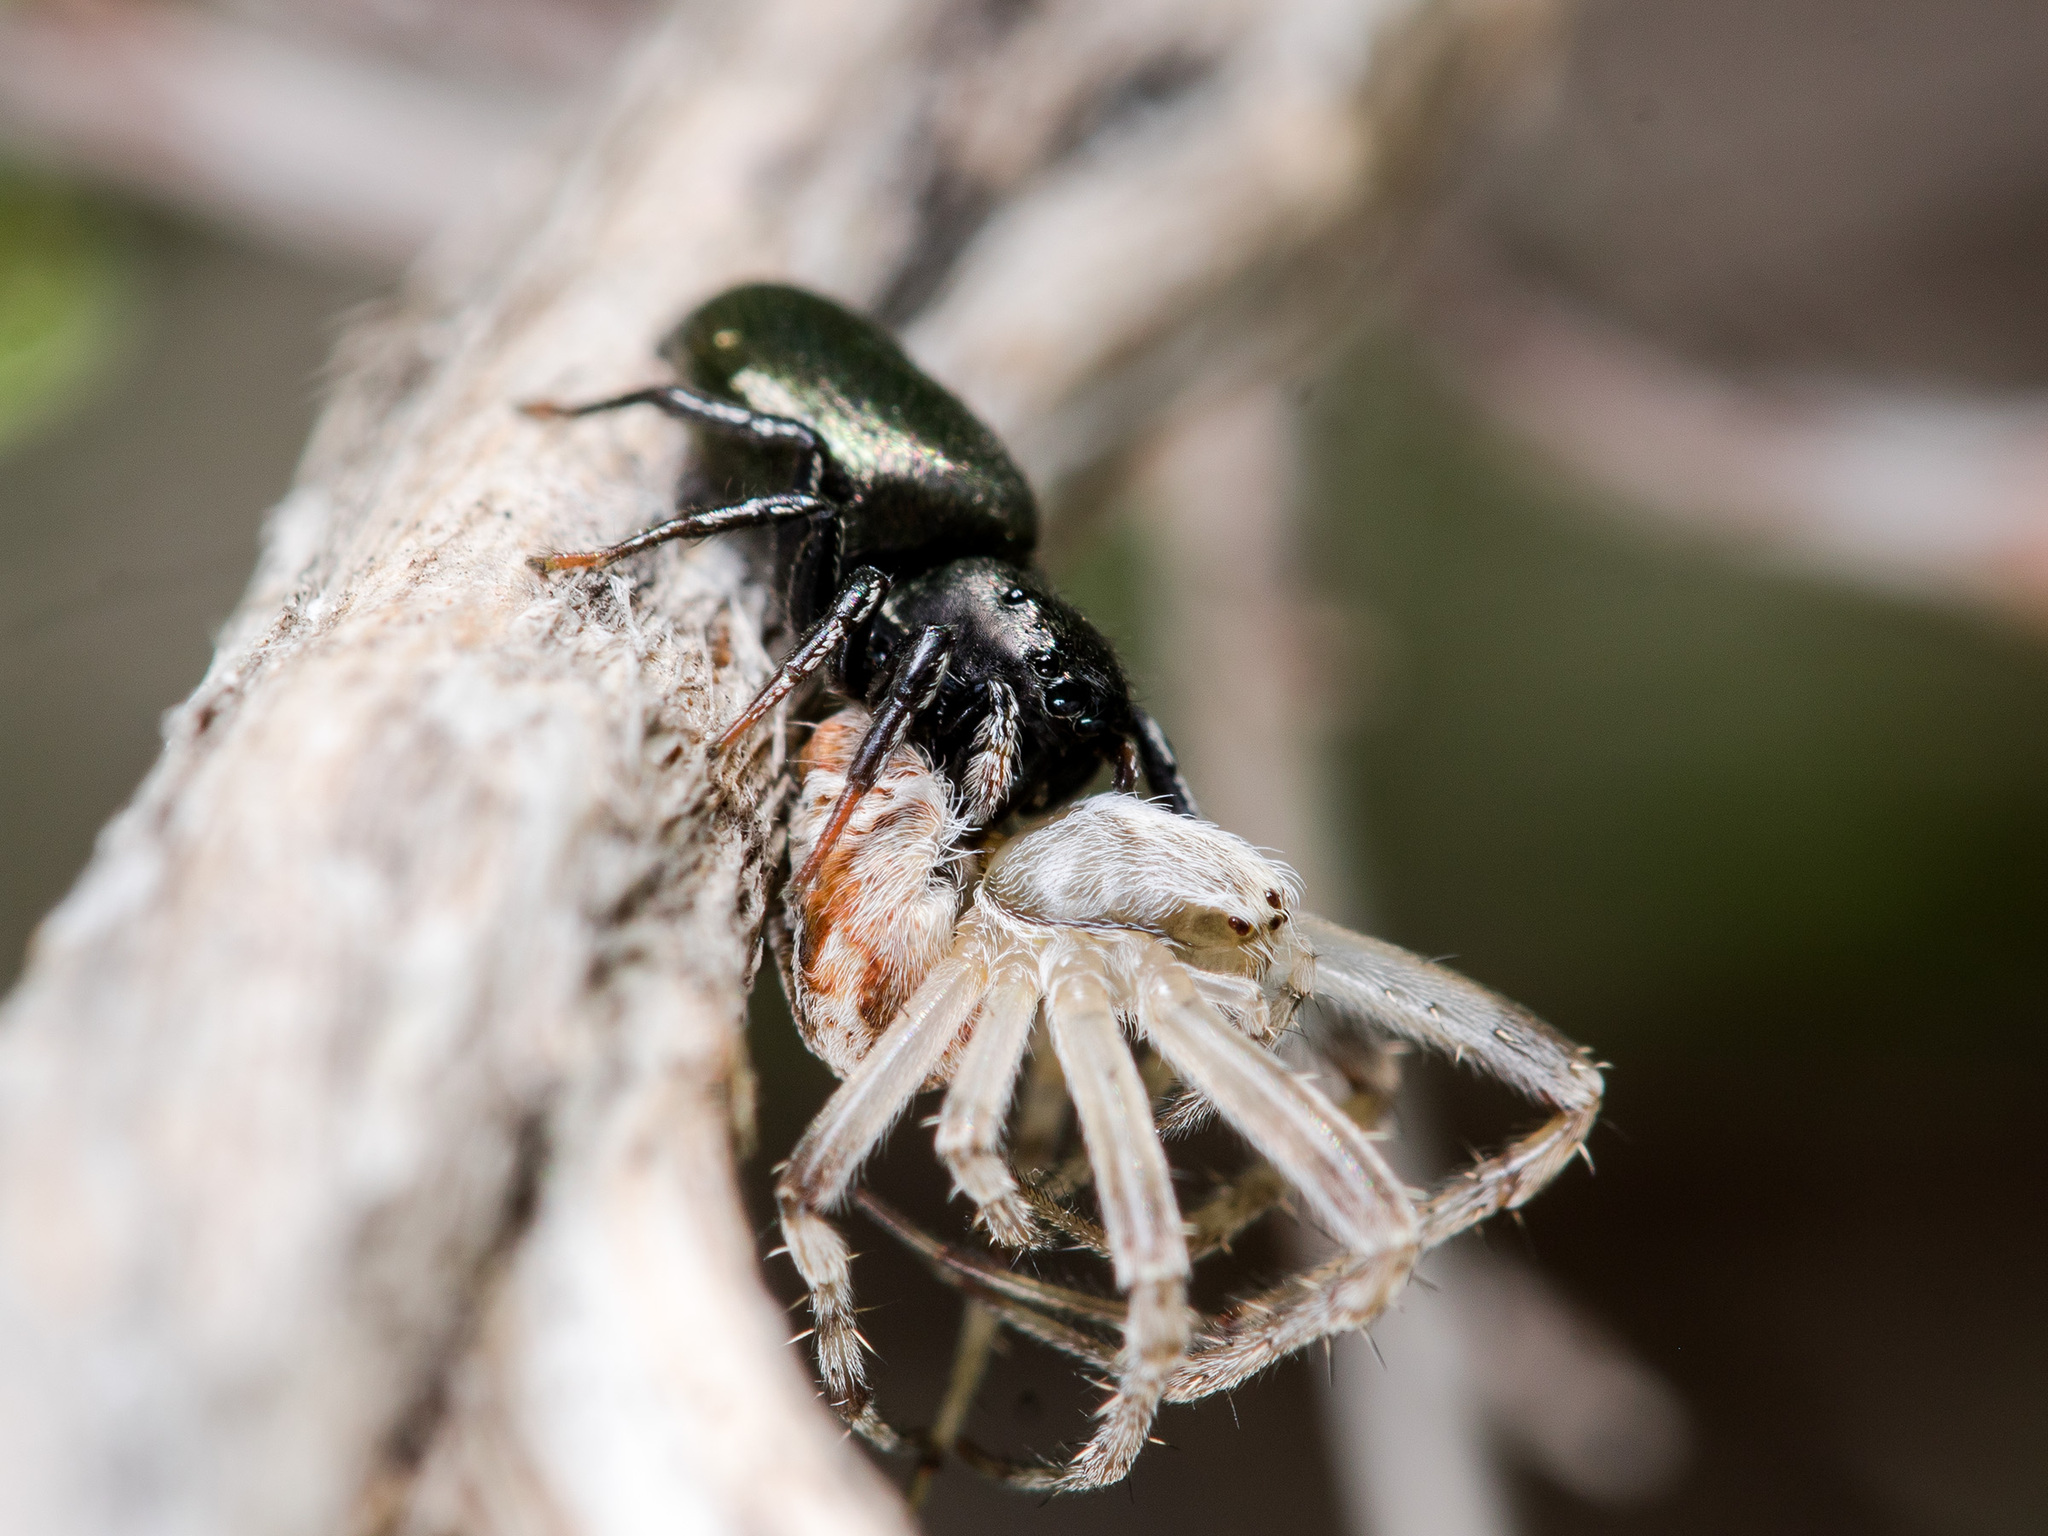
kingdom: Animalia
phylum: Arthropoda
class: Arachnida
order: Araneae
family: Salticidae
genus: Heliophanus
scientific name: Heliophanus chovdensis
